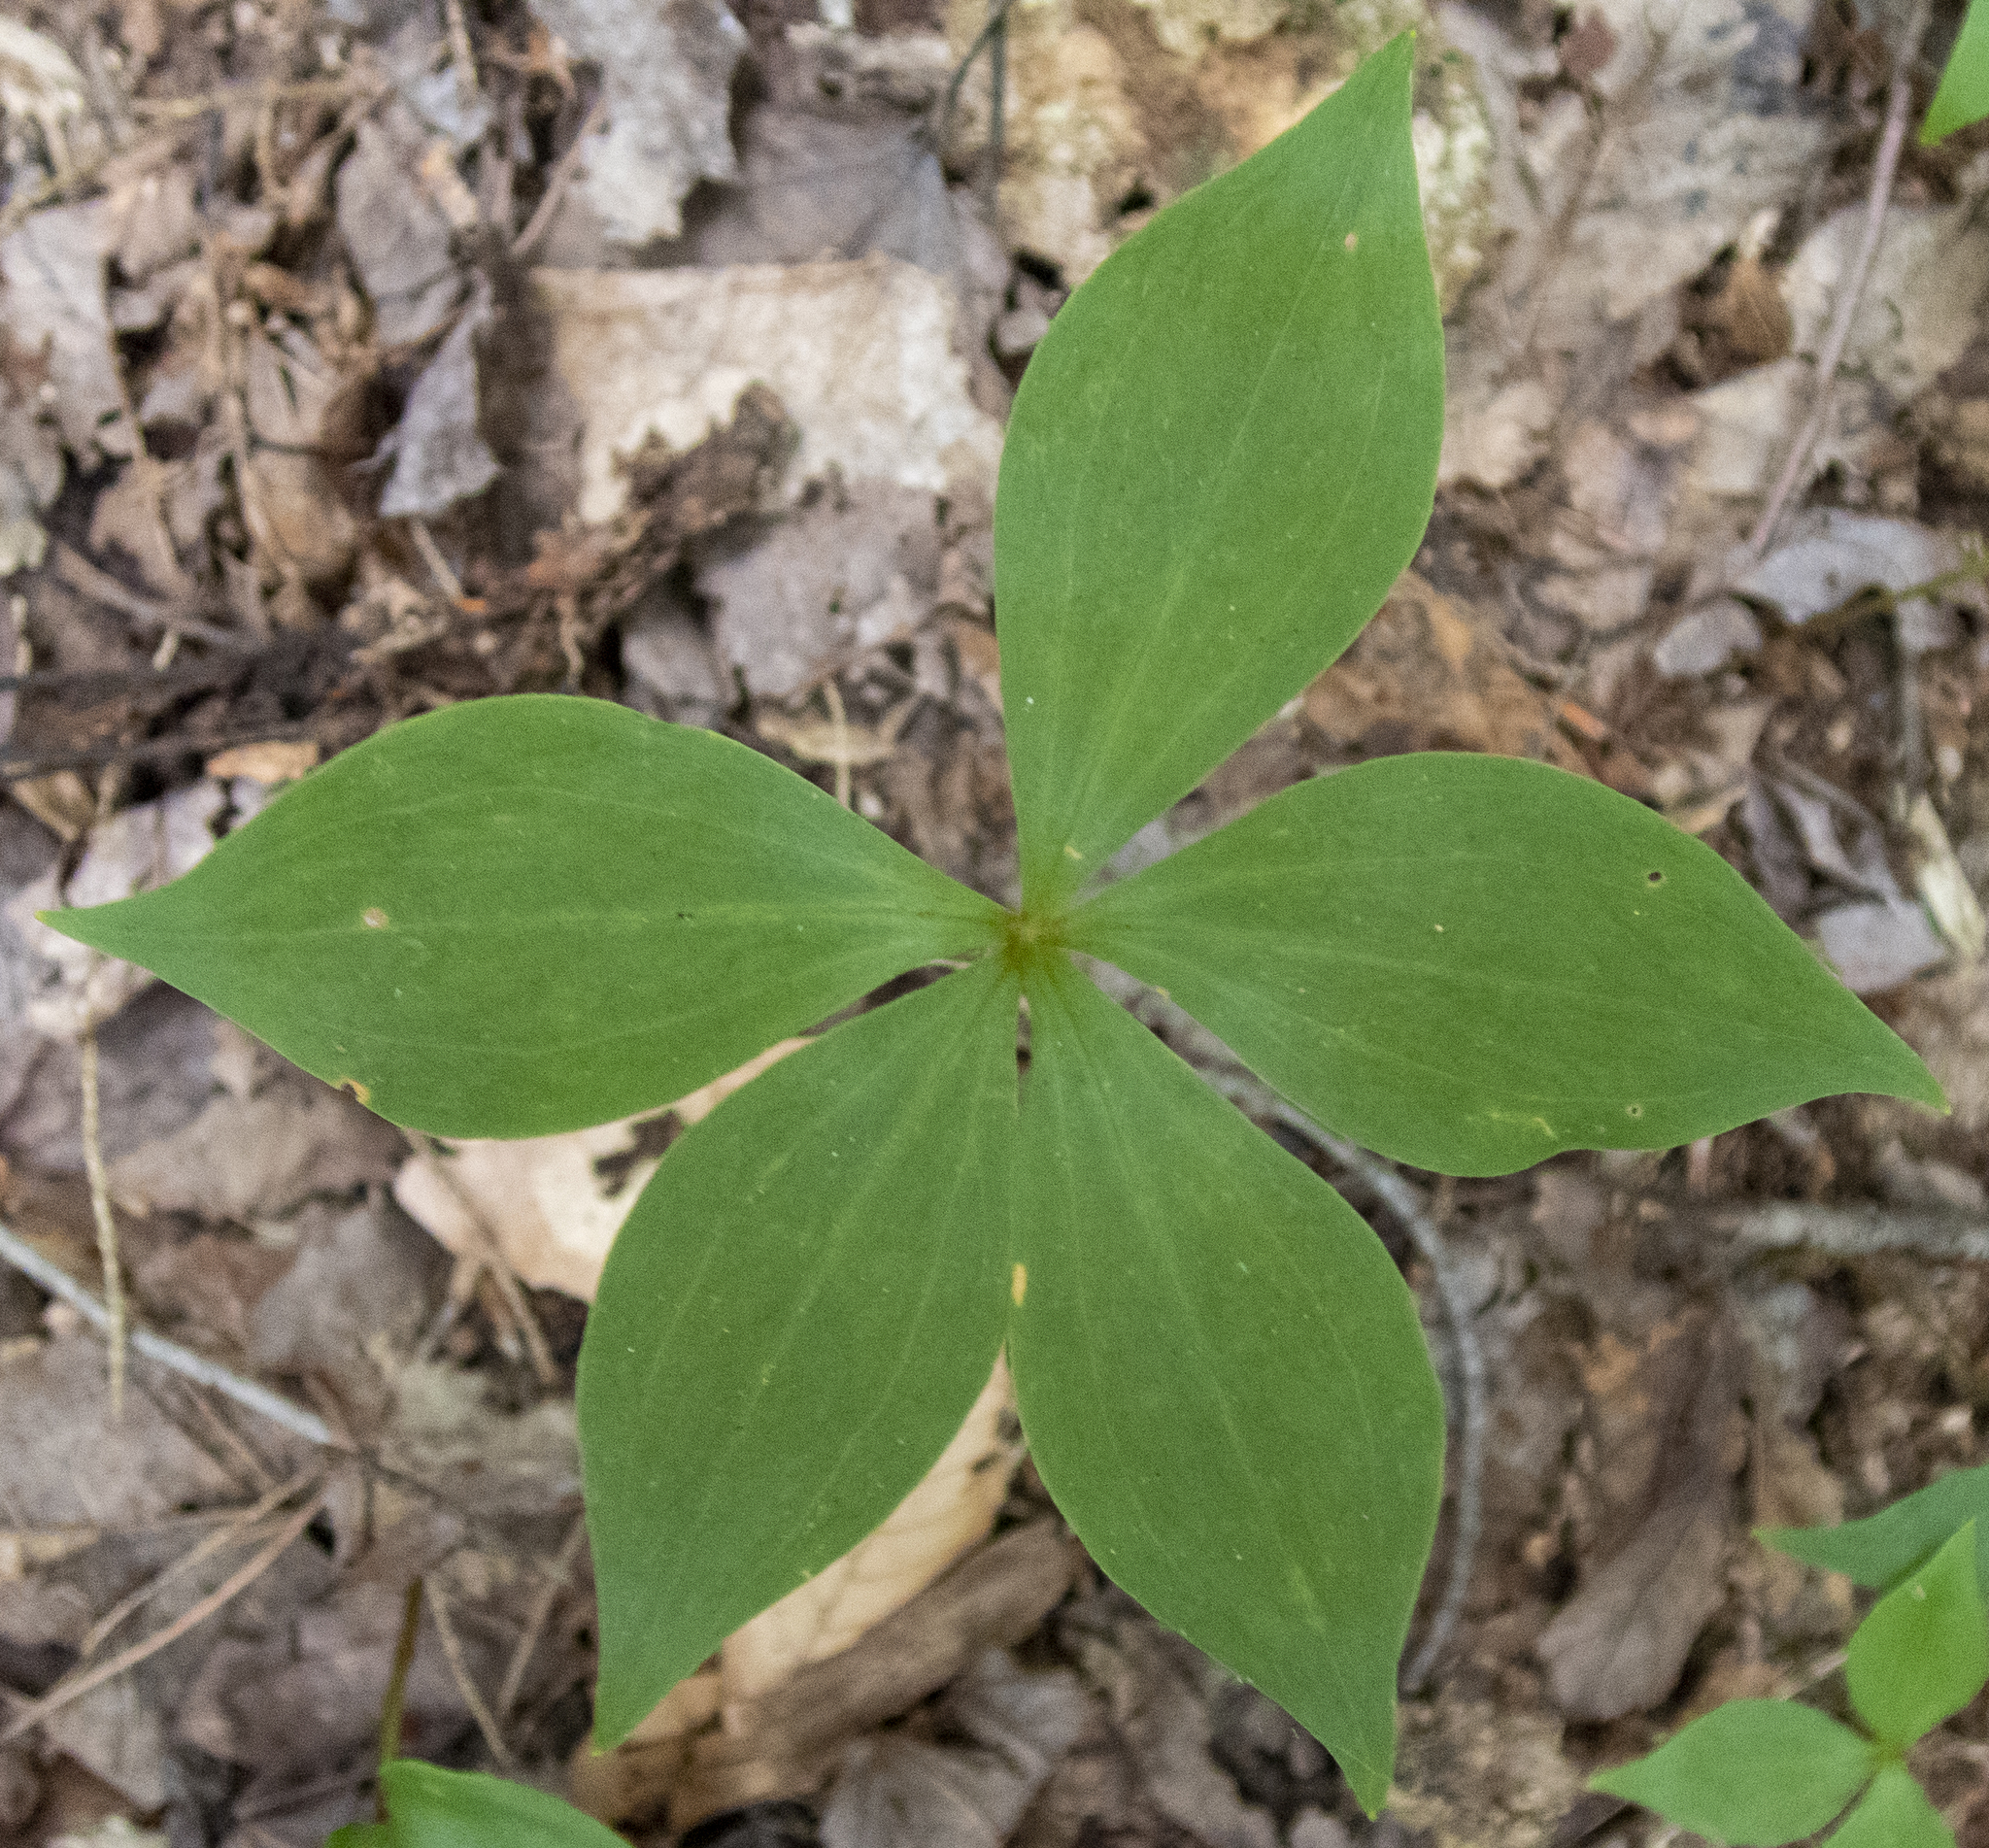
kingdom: Plantae
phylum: Tracheophyta
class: Liliopsida
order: Liliales
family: Liliaceae
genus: Medeola
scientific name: Medeola virginiana
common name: Indian cucumber-root
